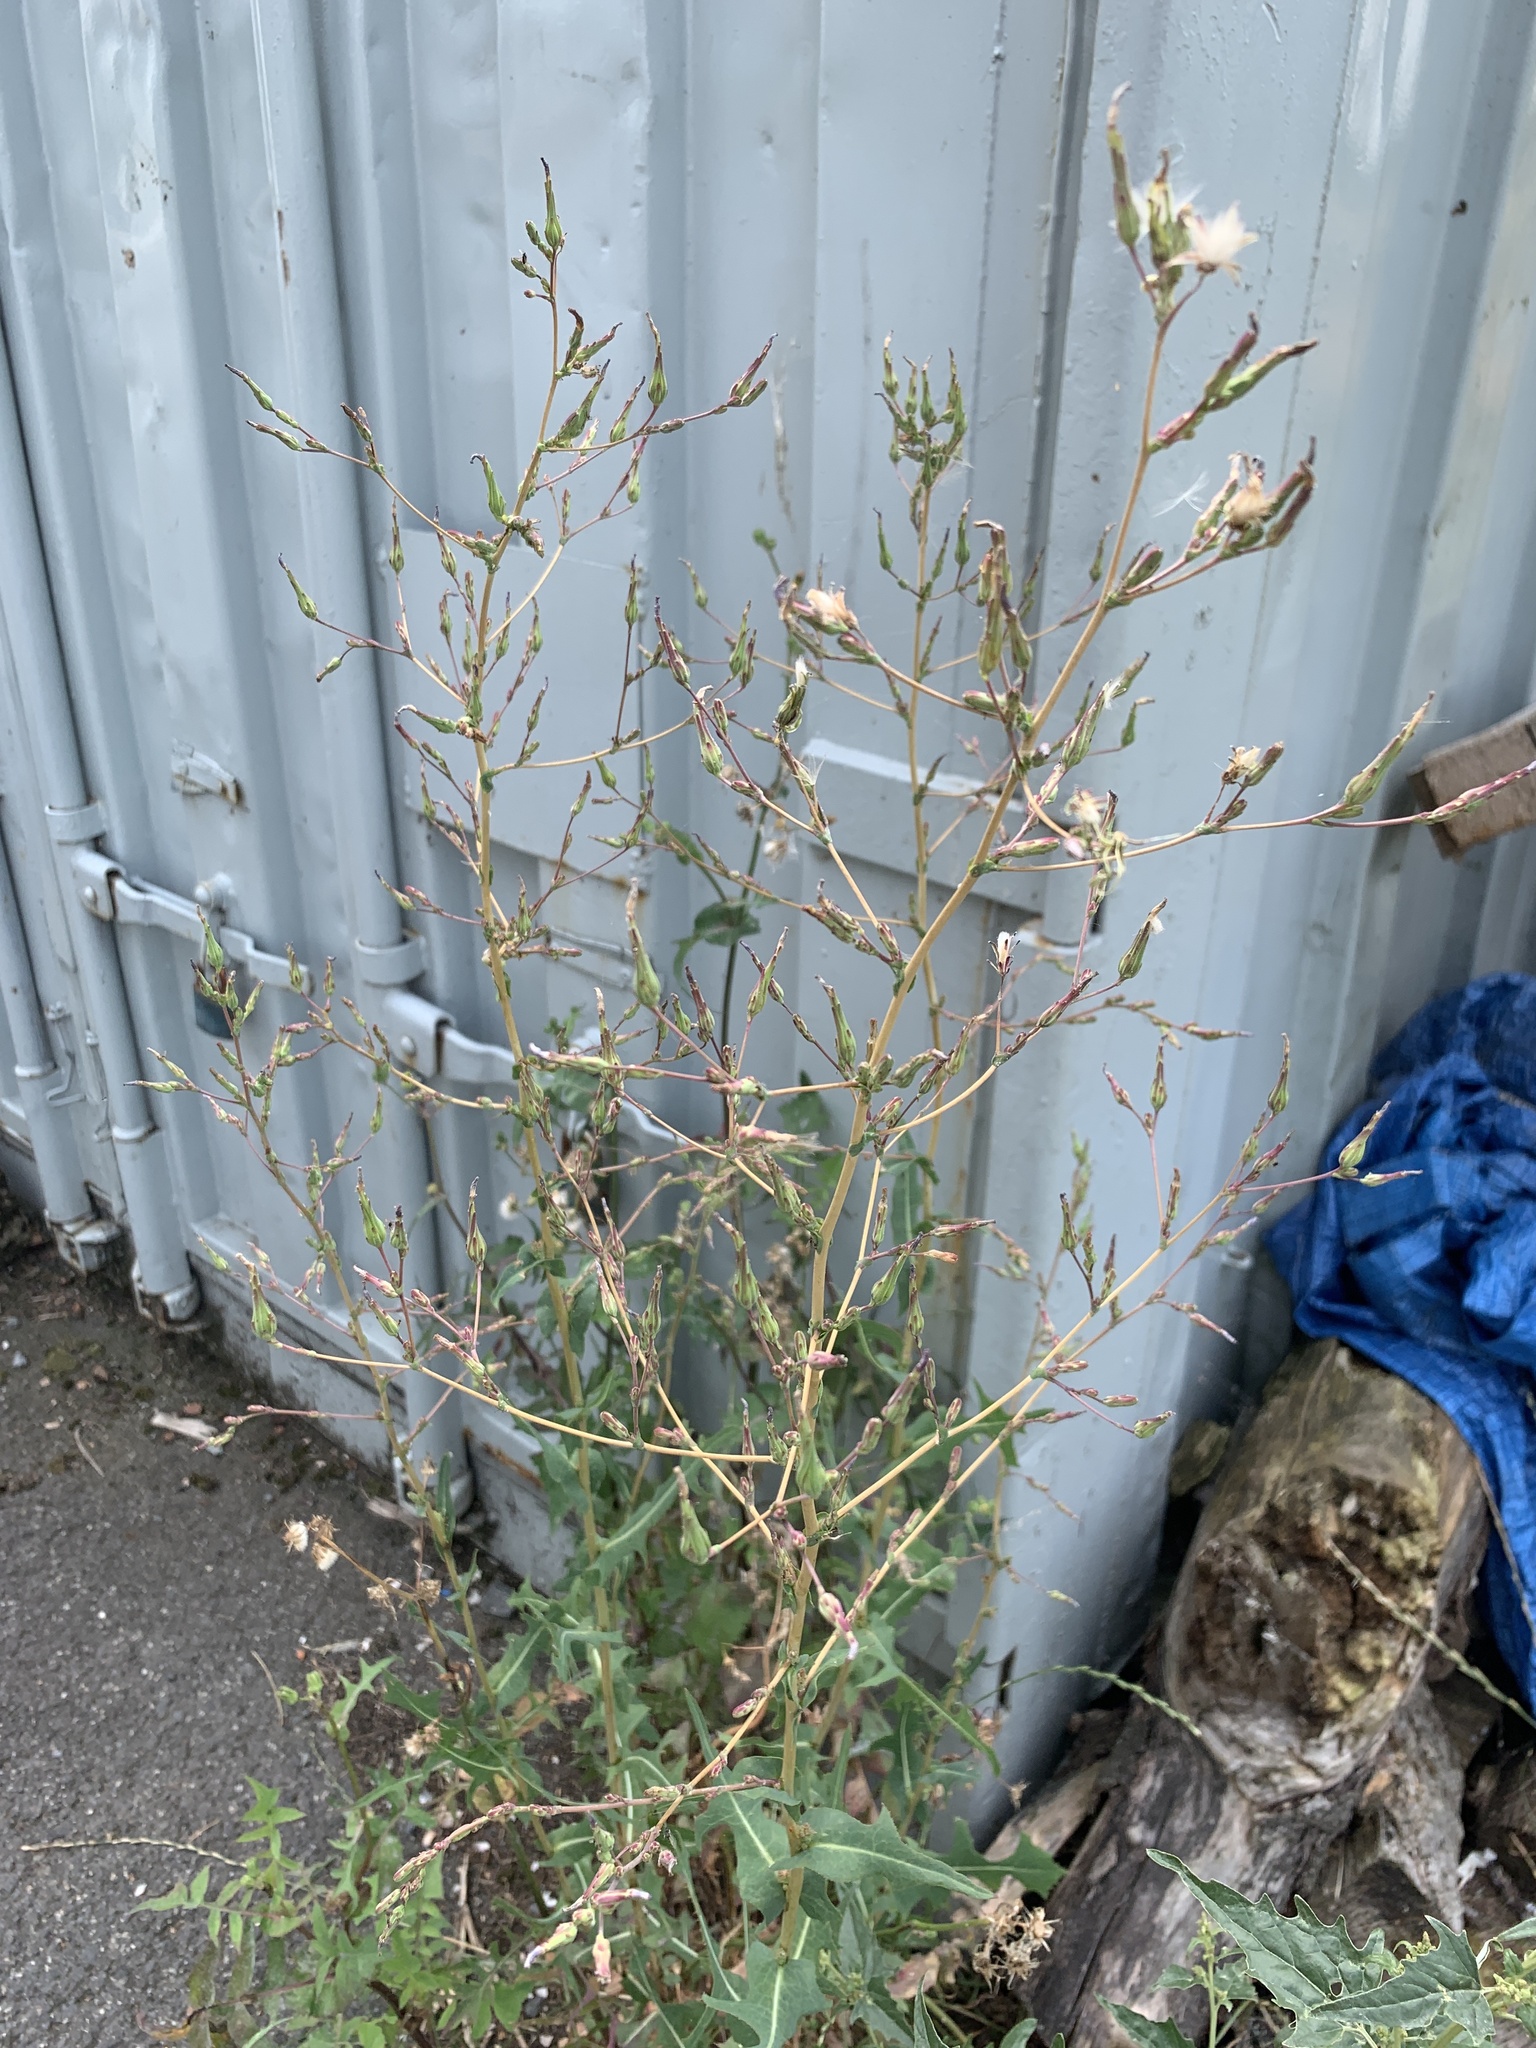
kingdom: Plantae
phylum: Tracheophyta
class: Magnoliopsida
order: Asterales
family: Asteraceae
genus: Lactuca
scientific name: Lactuca serriola
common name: Prickly lettuce
